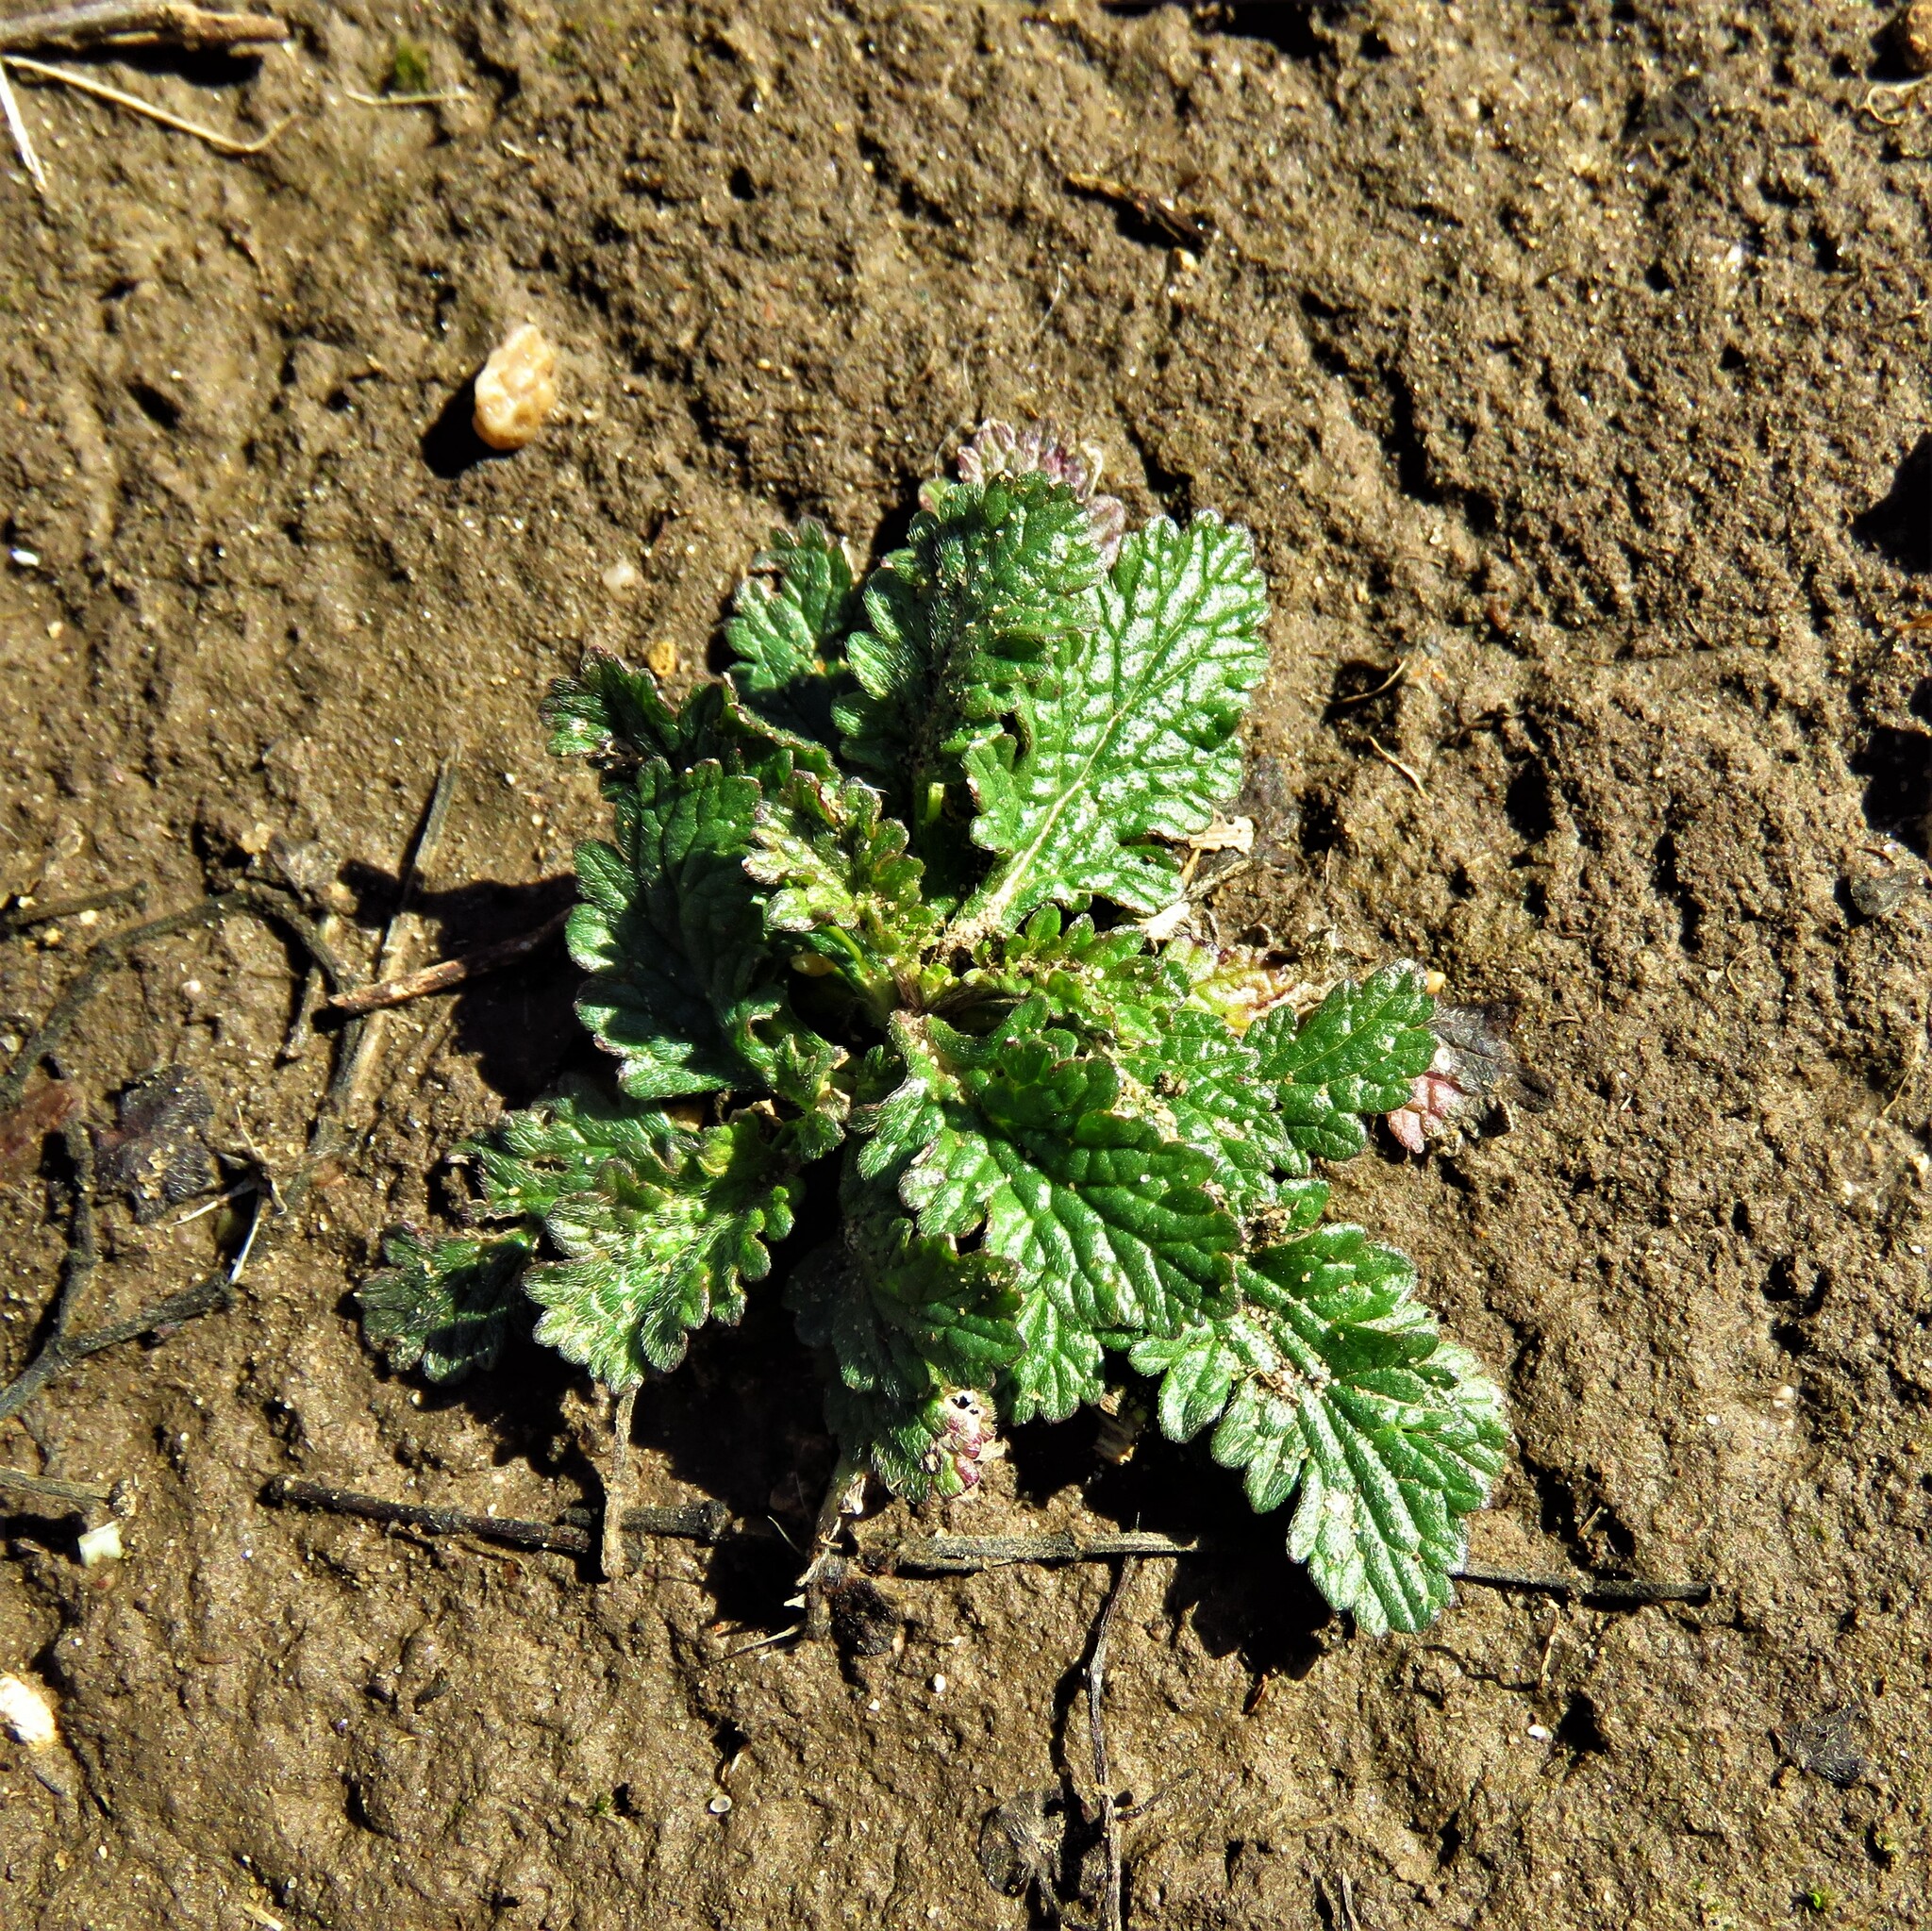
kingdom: Plantae
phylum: Tracheophyta
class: Magnoliopsida
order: Lamiales
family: Verbenaceae
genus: Verbena
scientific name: Verbena halei
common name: Texas vervain
